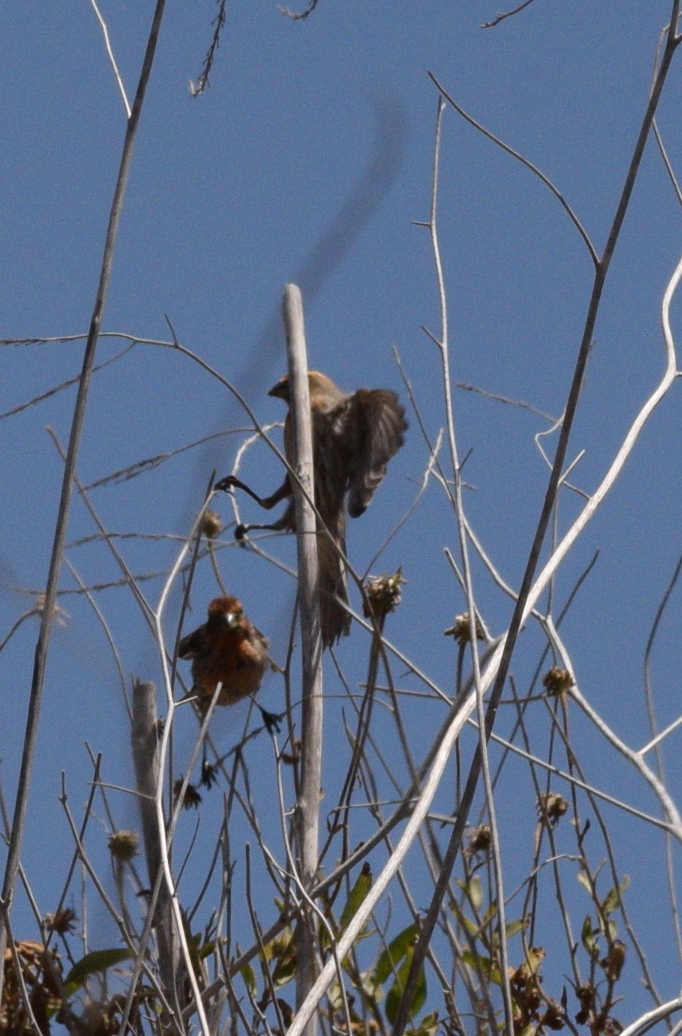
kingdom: Animalia
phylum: Chordata
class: Aves
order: Passeriformes
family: Fringillidae
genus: Haemorhous
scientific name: Haemorhous mexicanus
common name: House finch
